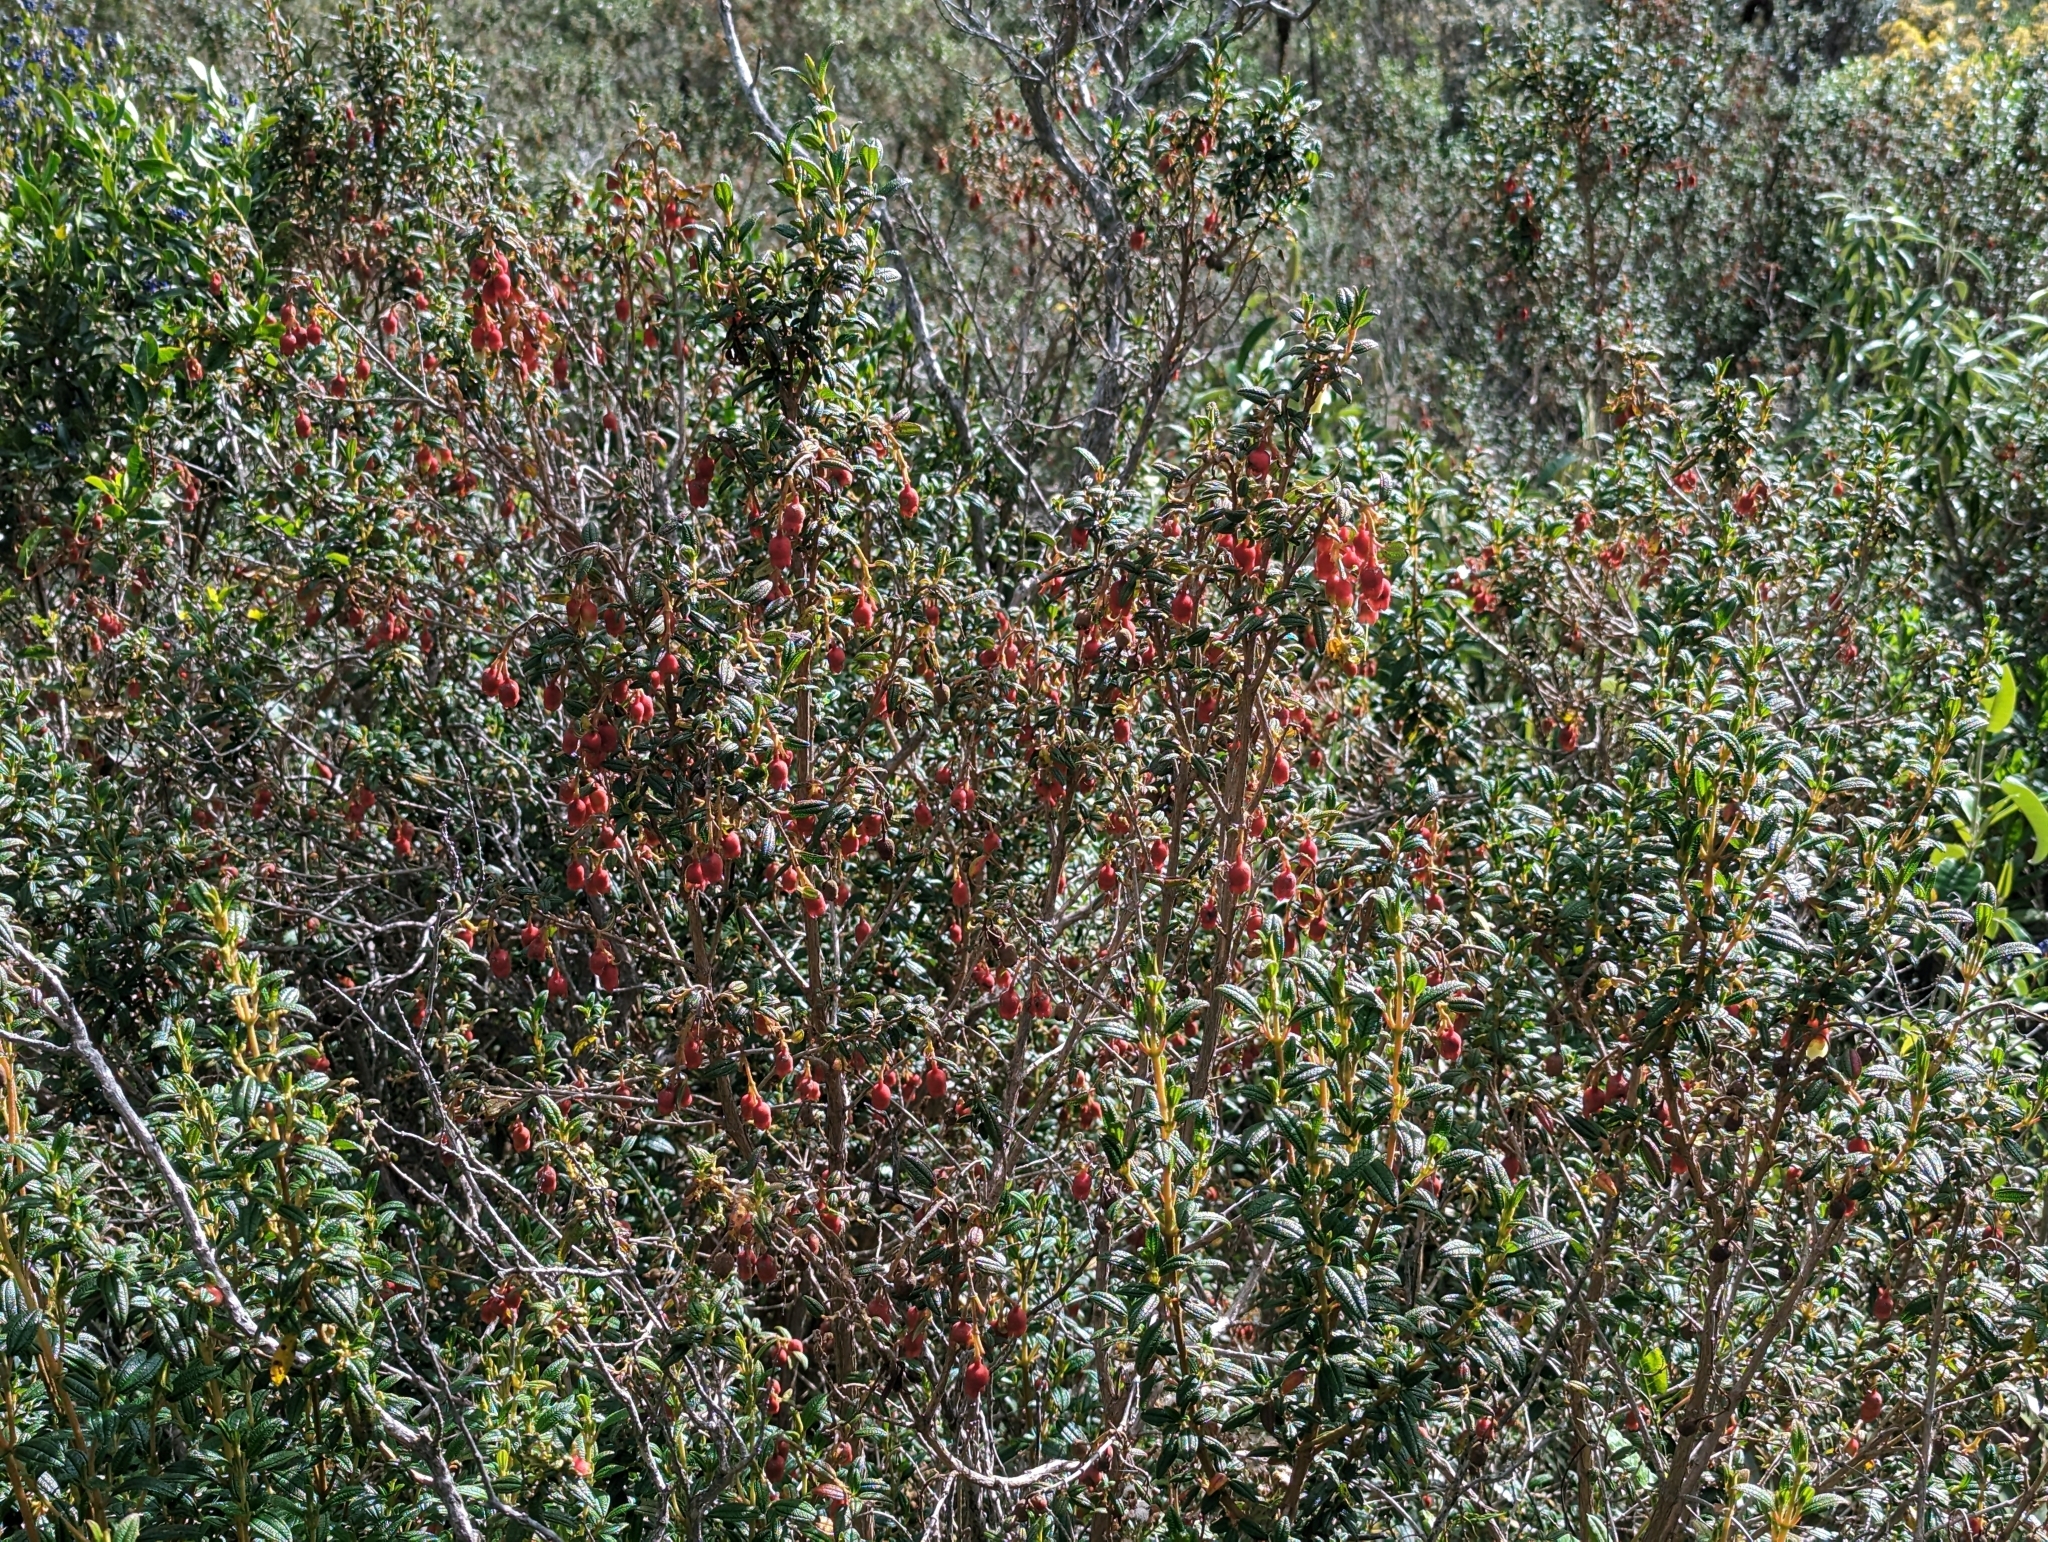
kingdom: Plantae
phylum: Tracheophyta
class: Magnoliopsida
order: Myrtales
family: Melastomataceae
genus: Brachyotum
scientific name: Brachyotum ledifolium
